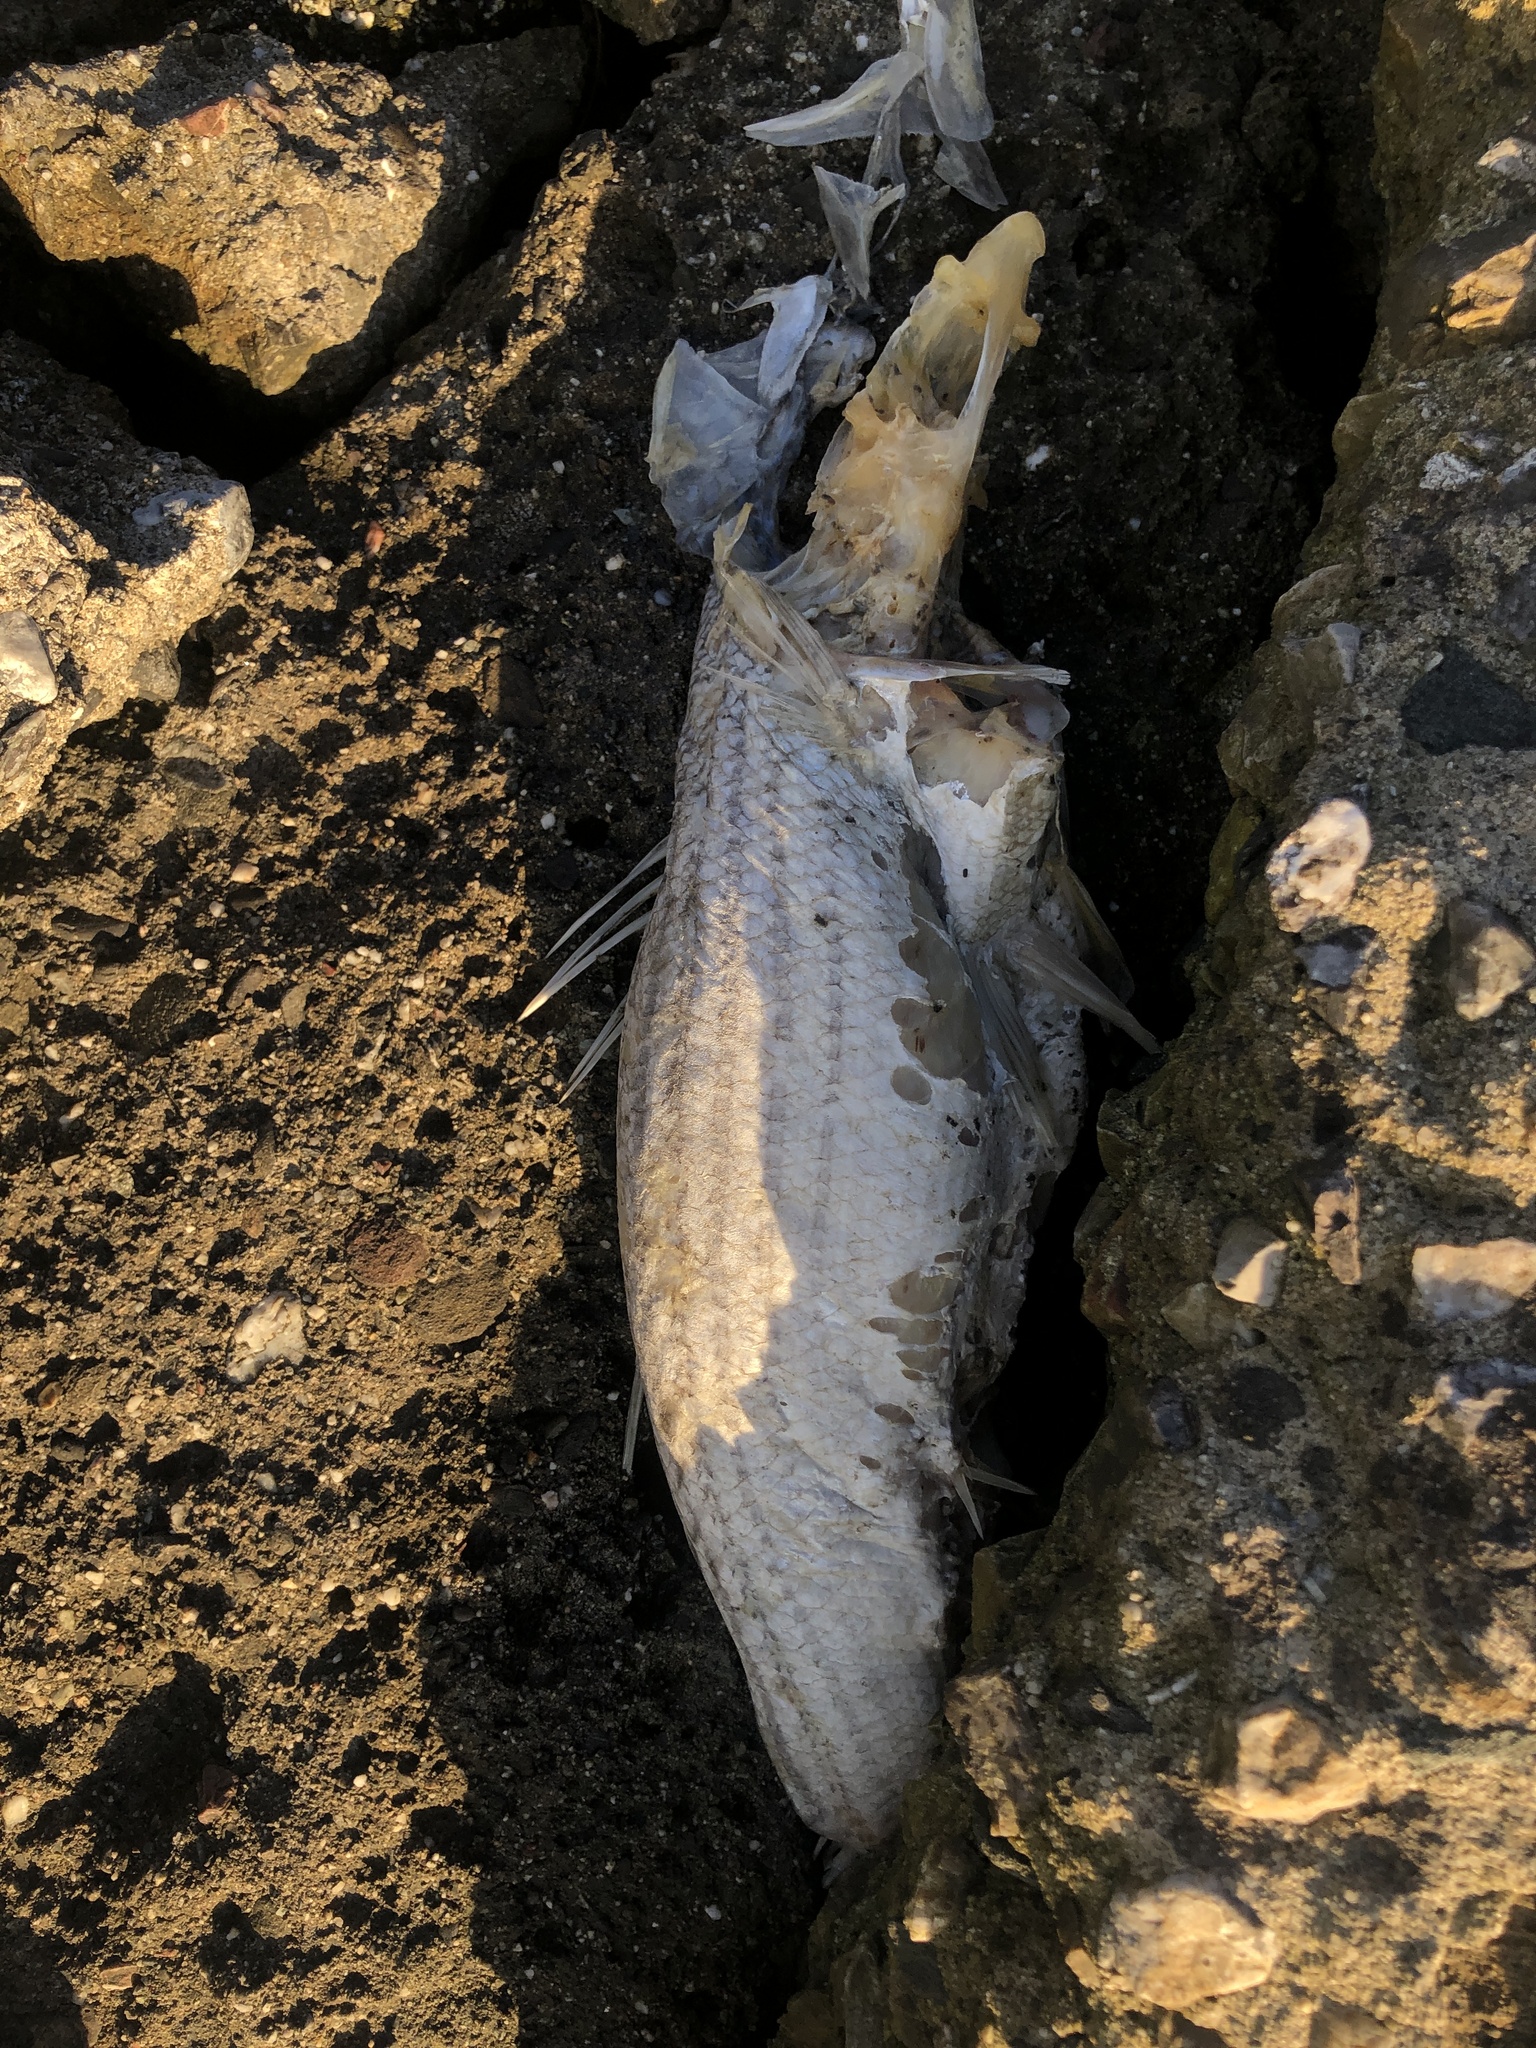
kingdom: Animalia
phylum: Chordata
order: Perciformes
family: Moronidae
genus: Morone
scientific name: Morone saxatilis
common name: Striped bass
